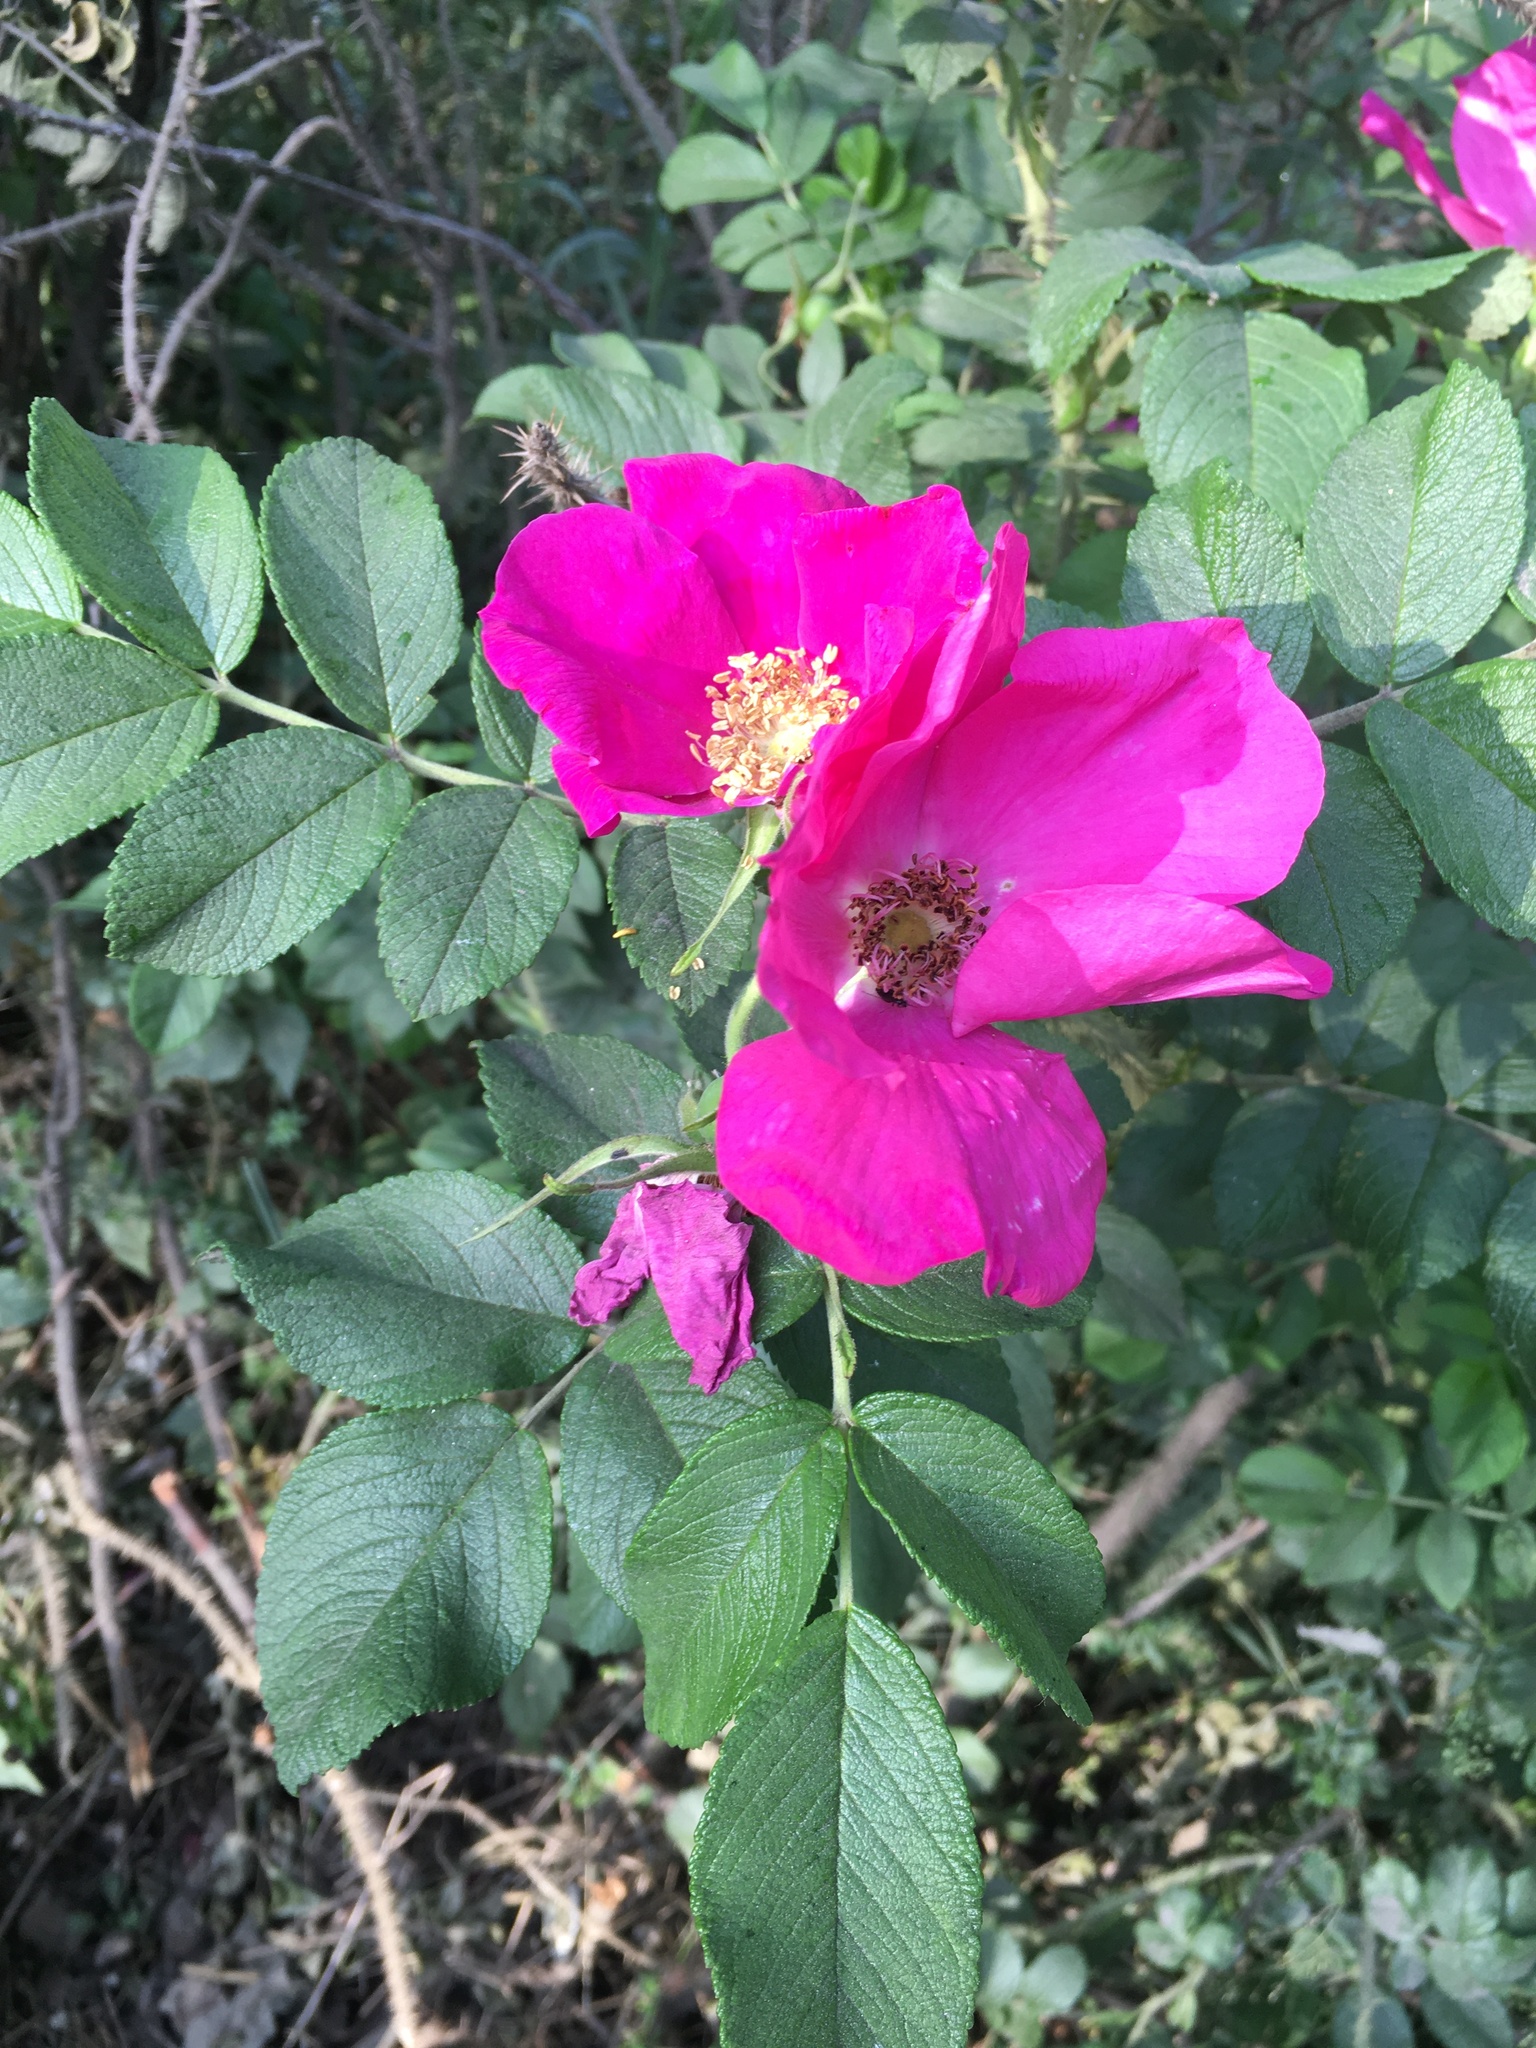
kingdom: Plantae
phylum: Tracheophyta
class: Magnoliopsida
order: Rosales
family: Rosaceae
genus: Rosa
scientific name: Rosa rugosa
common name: Japanese rose
